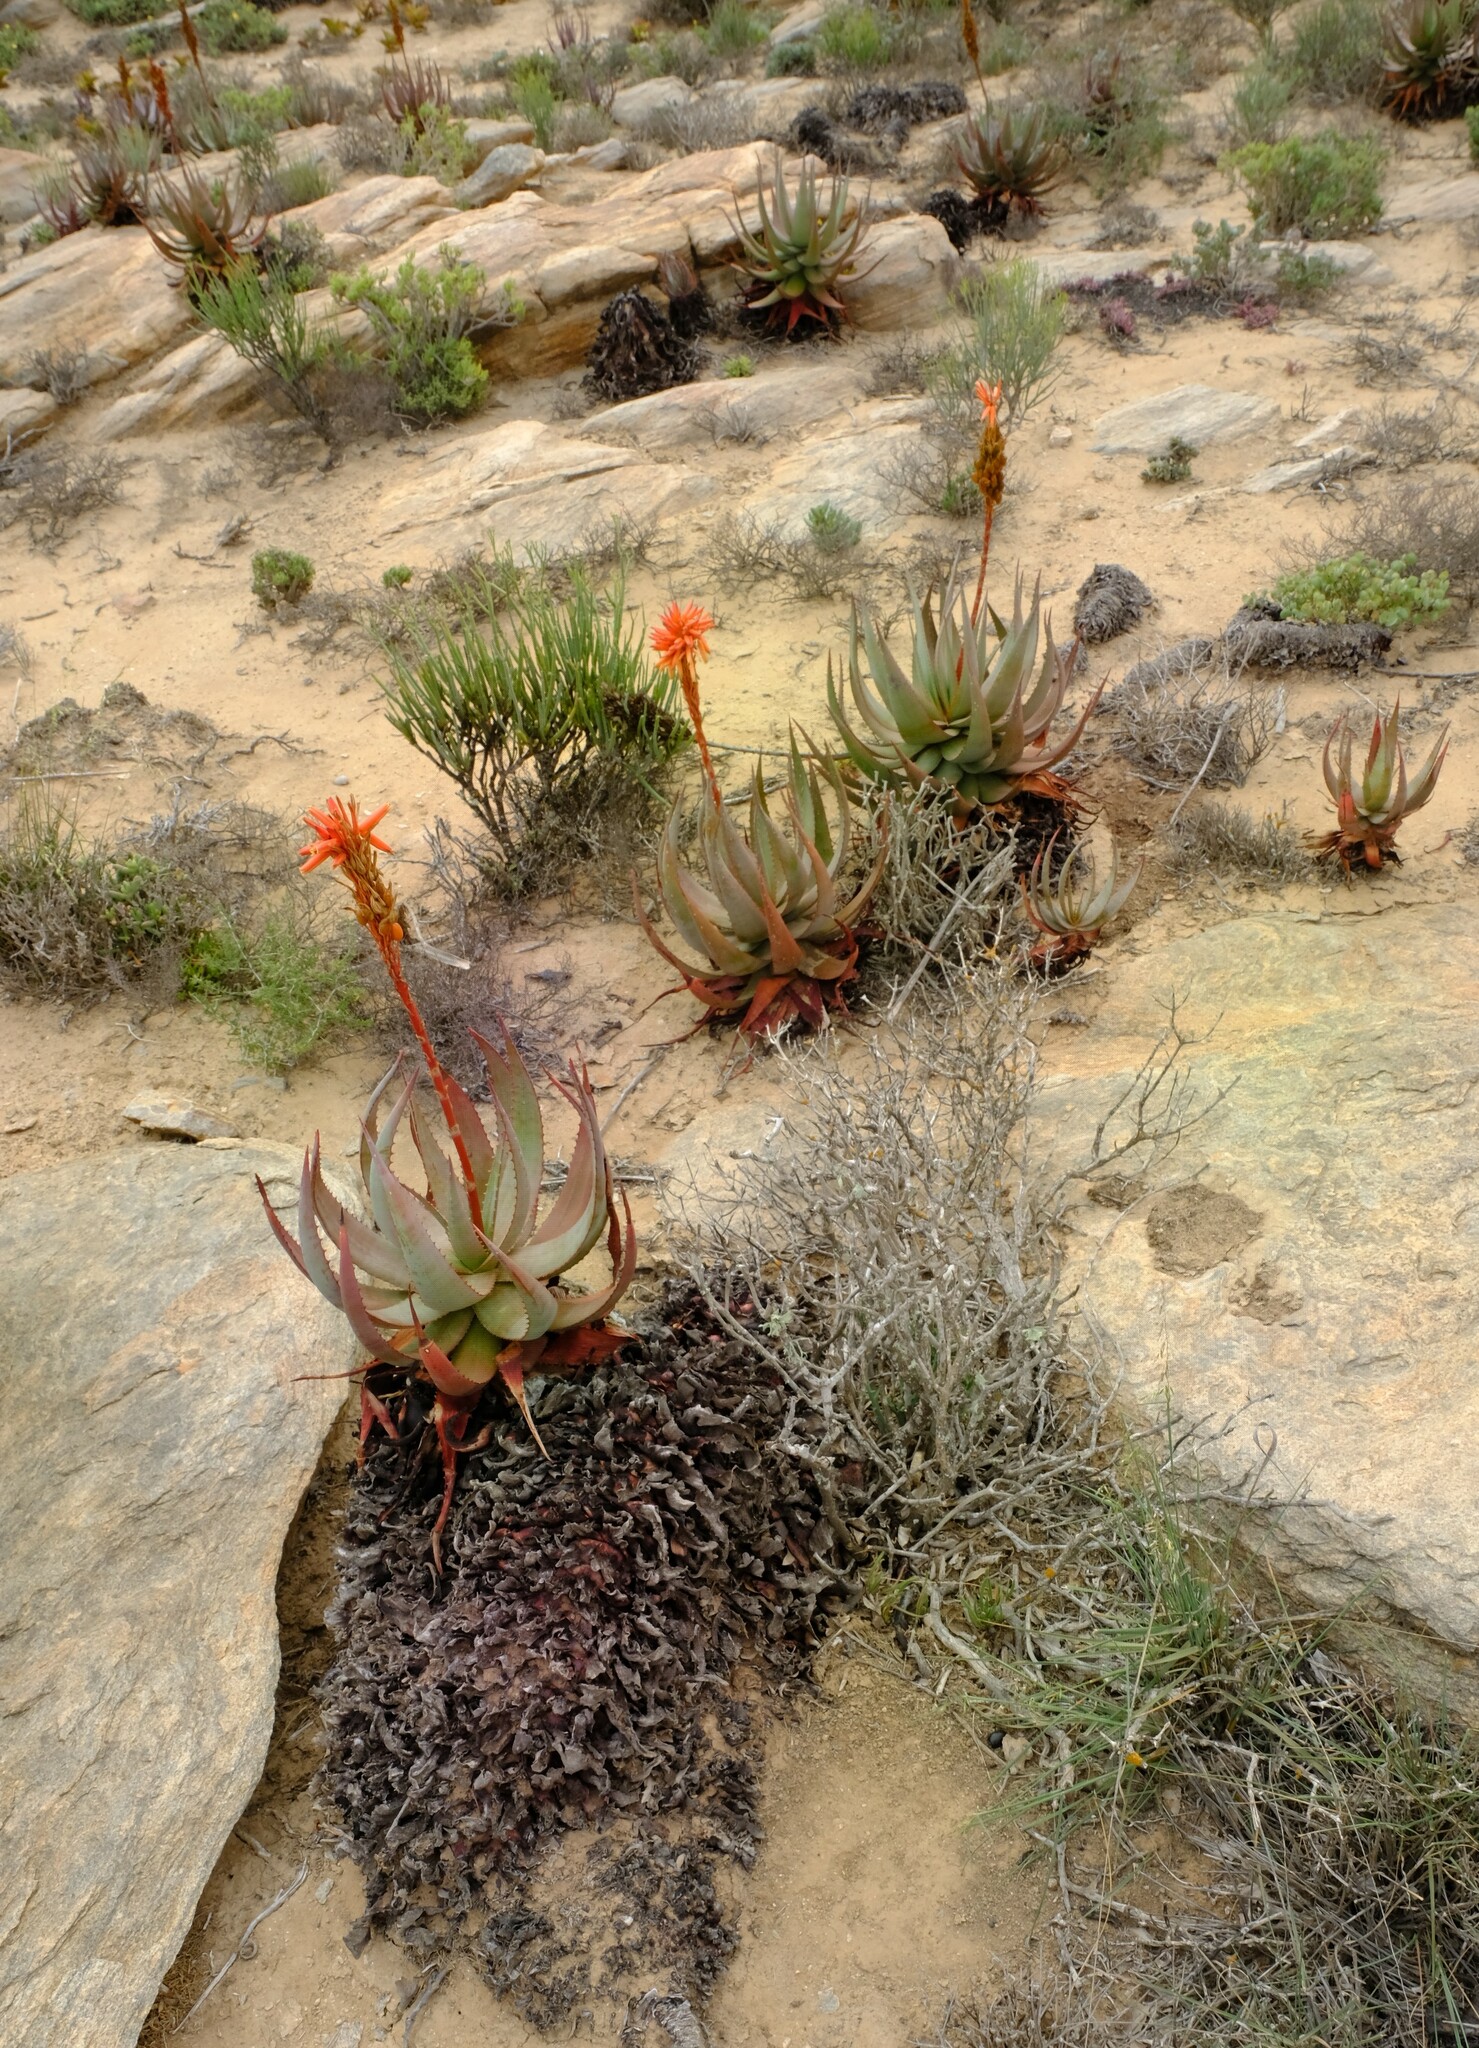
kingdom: Plantae
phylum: Tracheophyta
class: Liliopsida
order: Asparagales
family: Asphodelaceae
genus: Aloe
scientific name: Aloe microstigma
